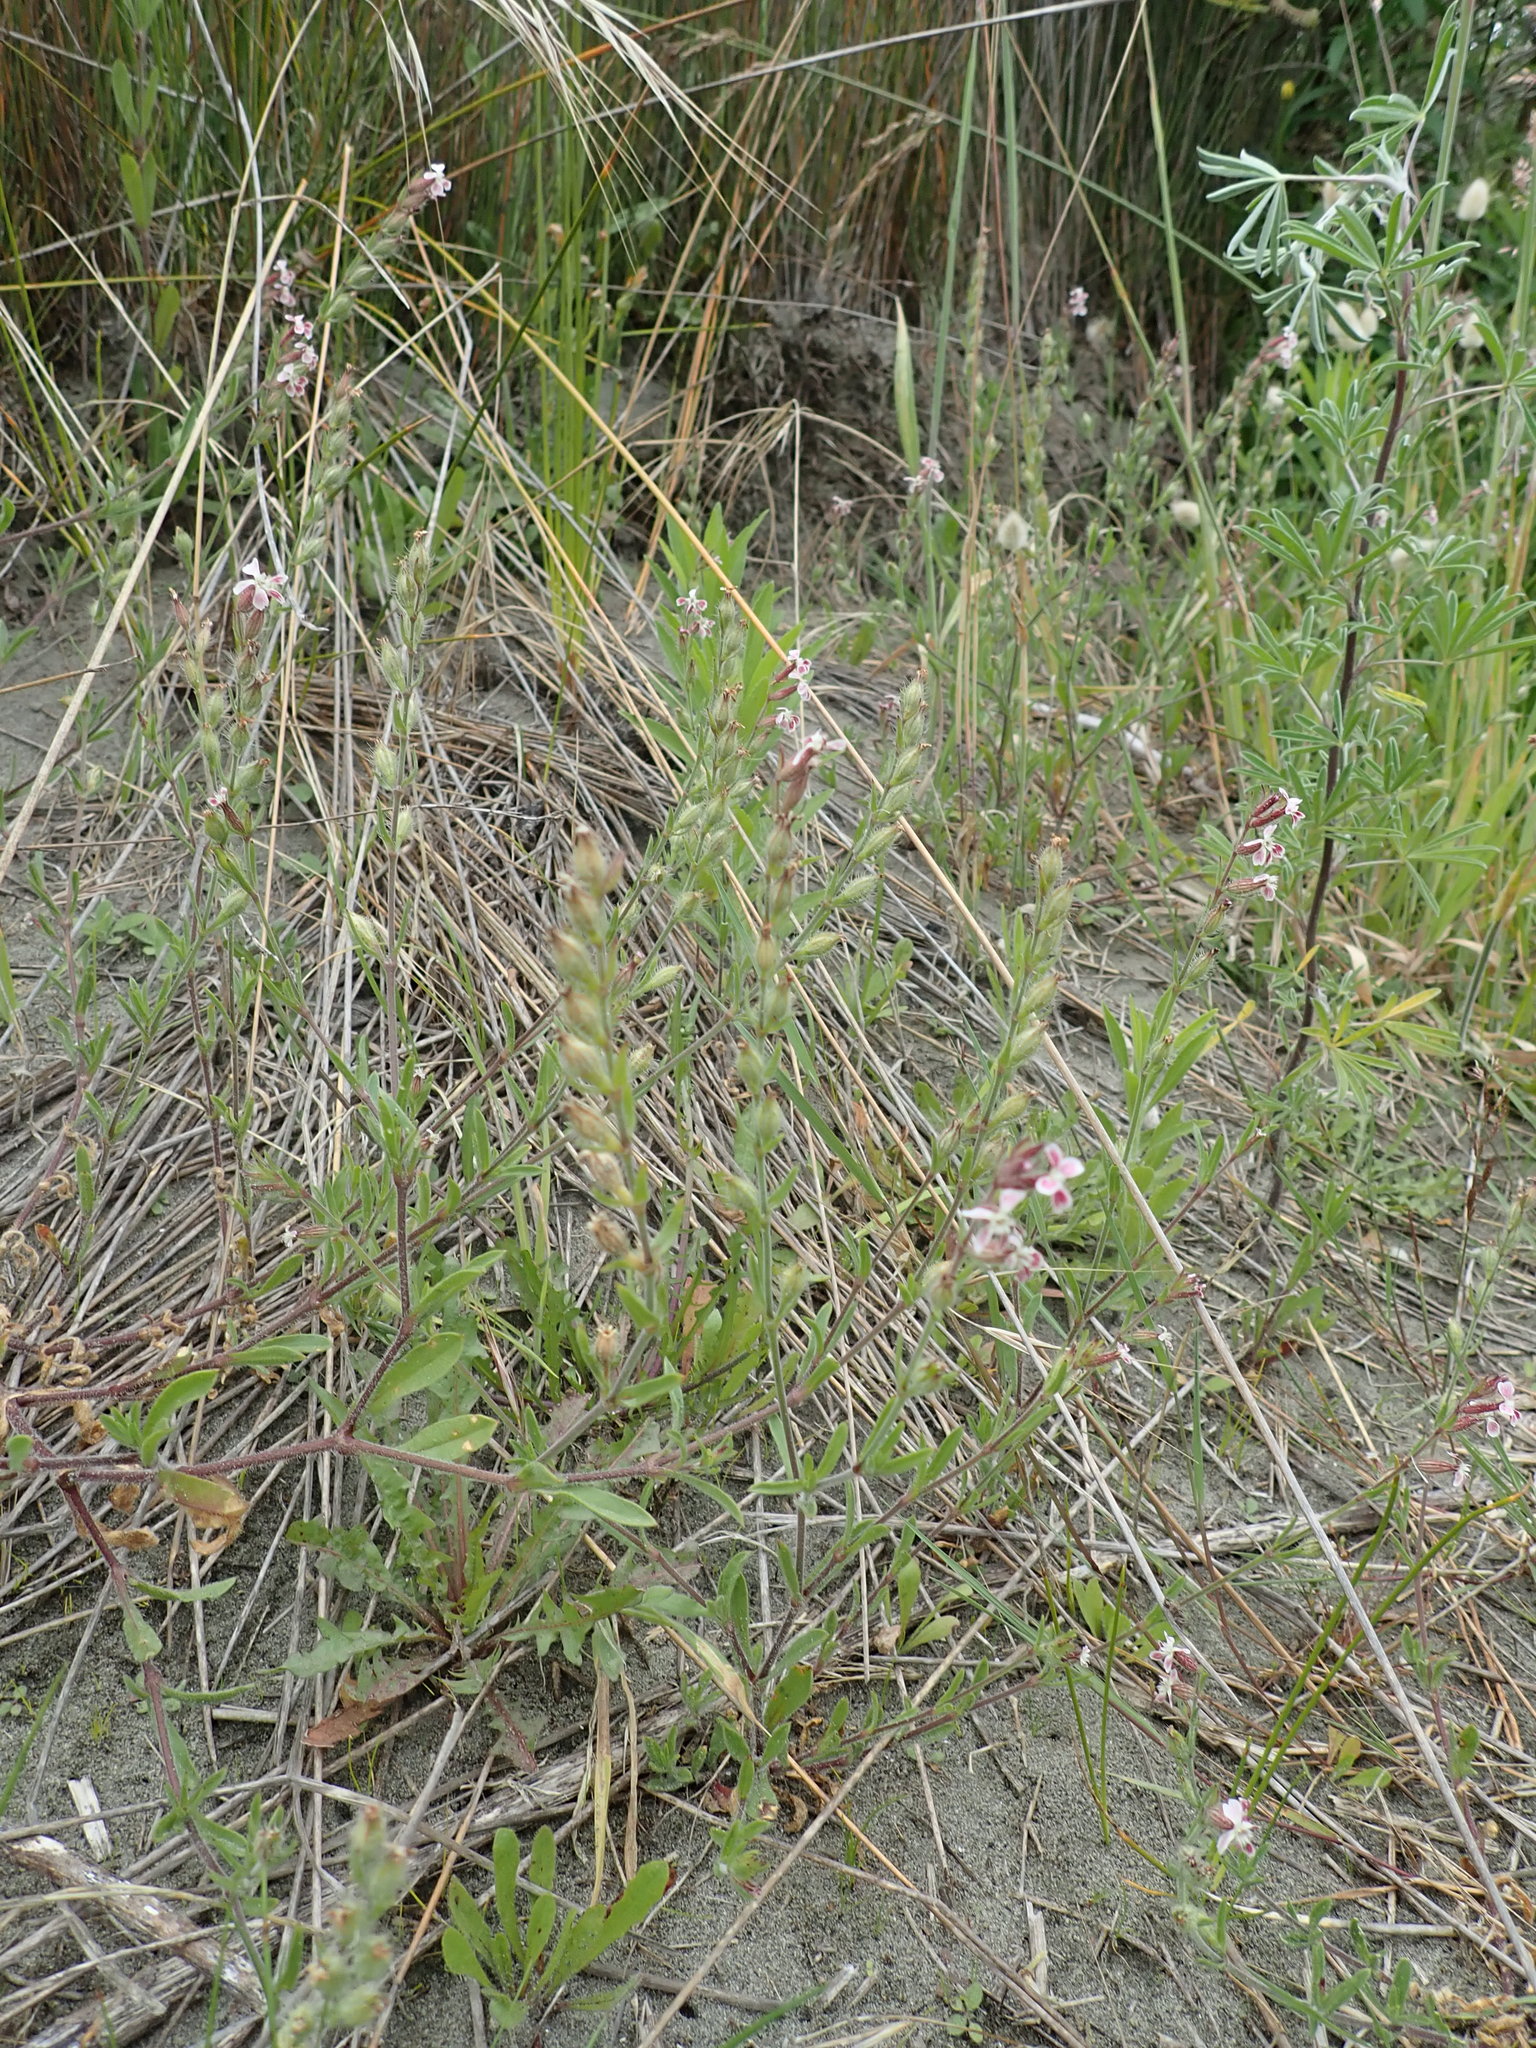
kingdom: Plantae
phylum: Tracheophyta
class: Magnoliopsida
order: Caryophyllales
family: Caryophyllaceae
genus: Silene
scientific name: Silene gallica
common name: Small-flowered catchfly
